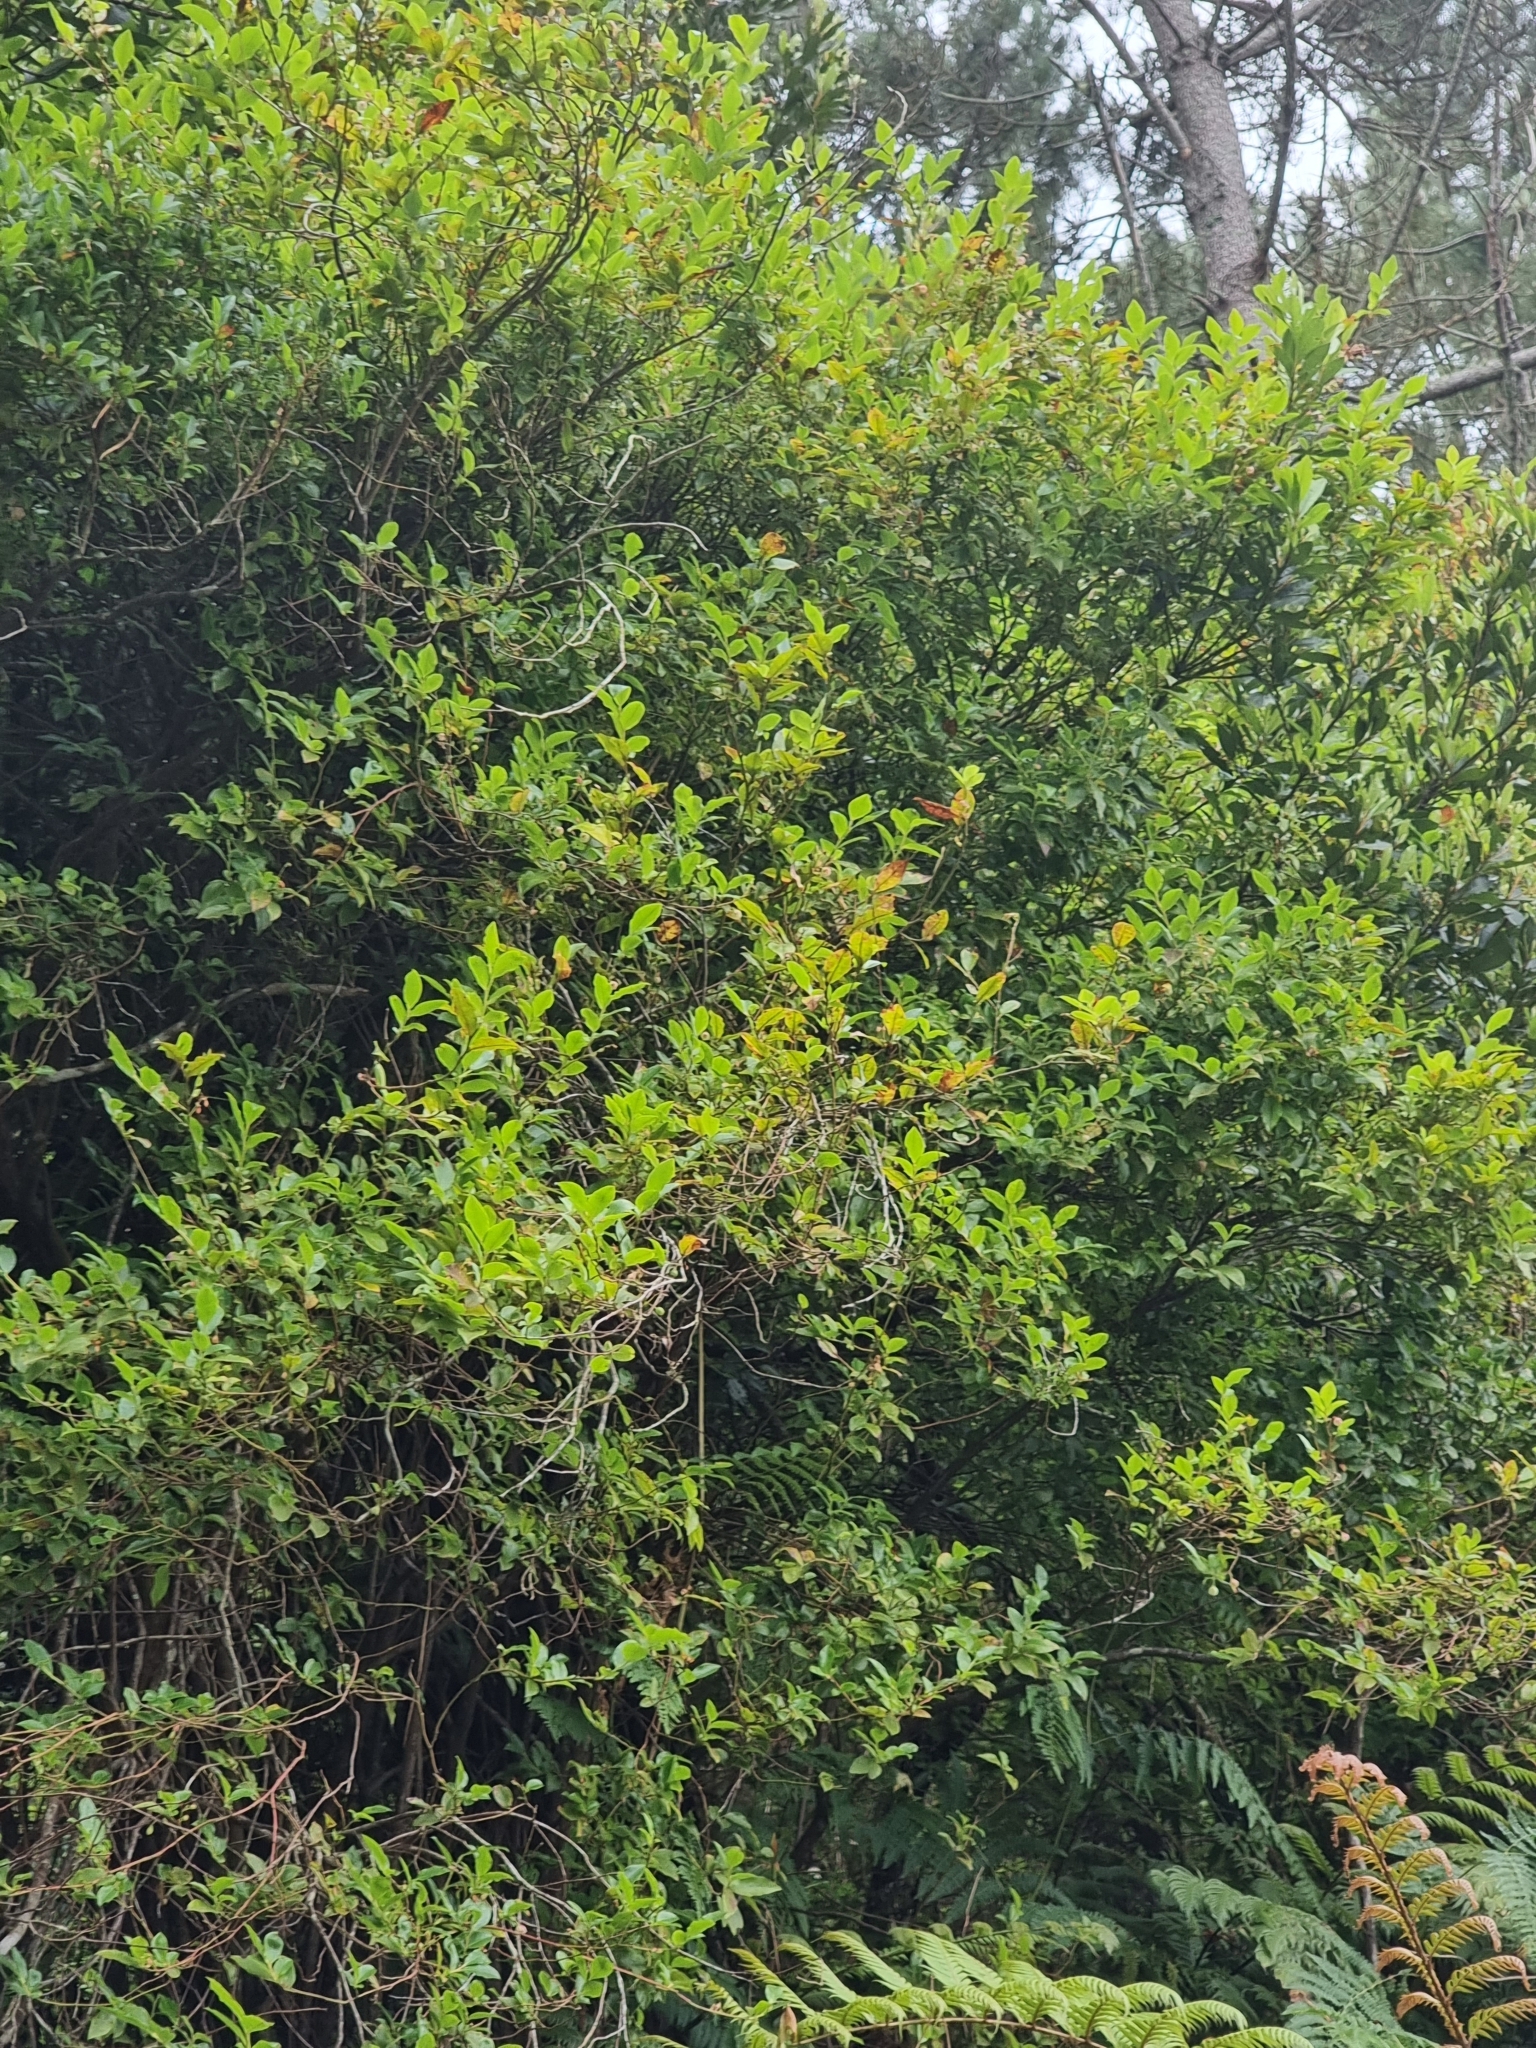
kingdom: Plantae
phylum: Tracheophyta
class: Magnoliopsida
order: Ericales
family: Ericaceae
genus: Vaccinium
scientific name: Vaccinium padifolium
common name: Madeiran blueberry
